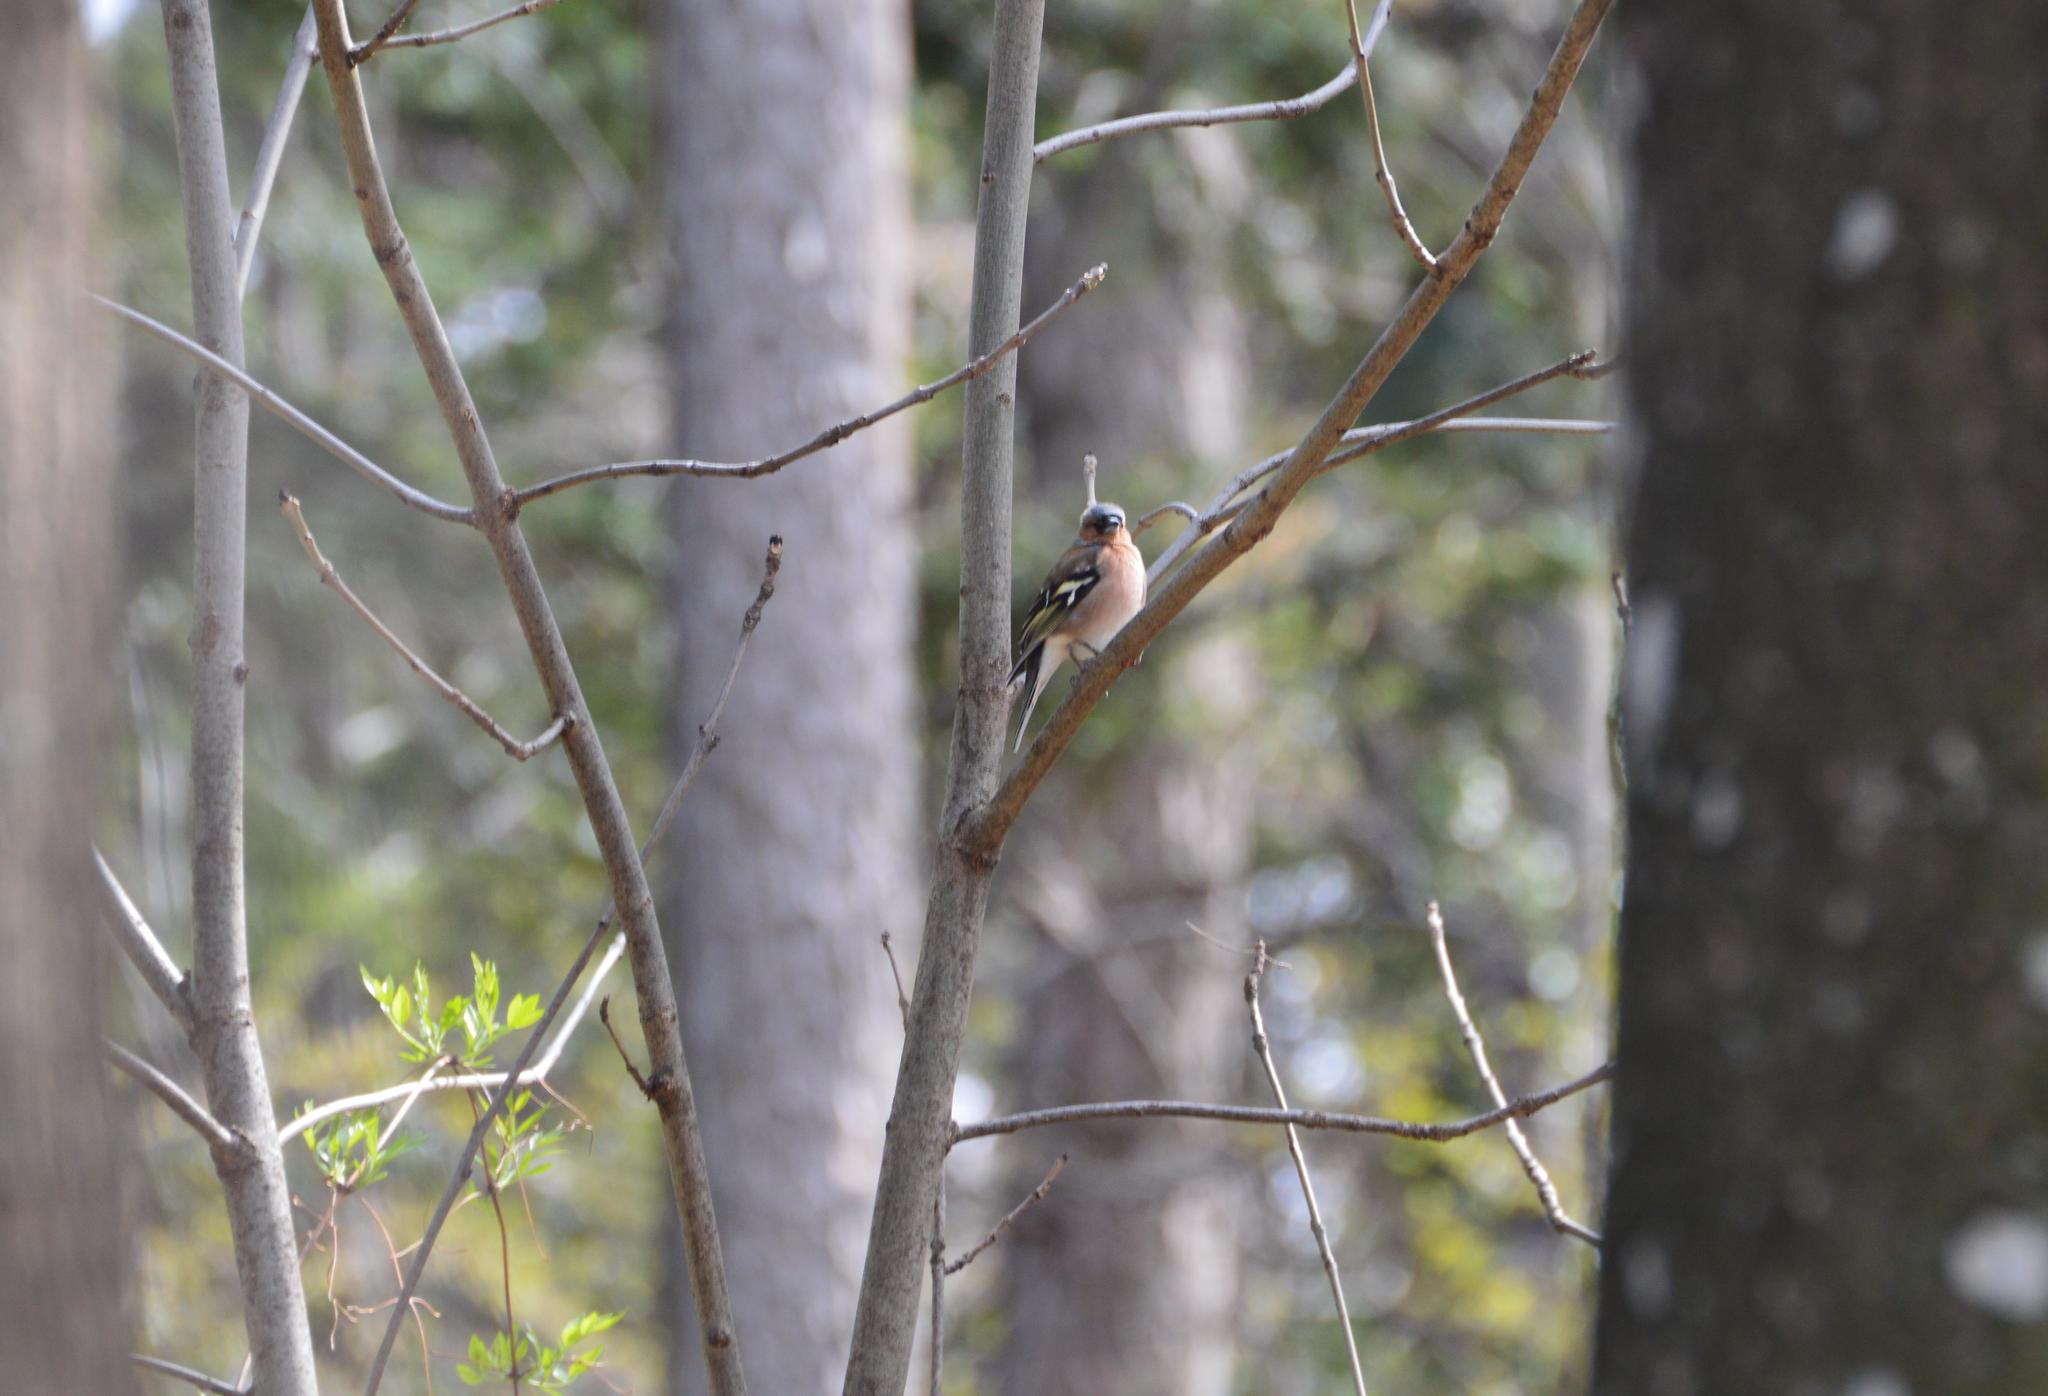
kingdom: Animalia
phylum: Chordata
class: Aves
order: Passeriformes
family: Fringillidae
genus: Fringilla
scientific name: Fringilla coelebs
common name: Common chaffinch
